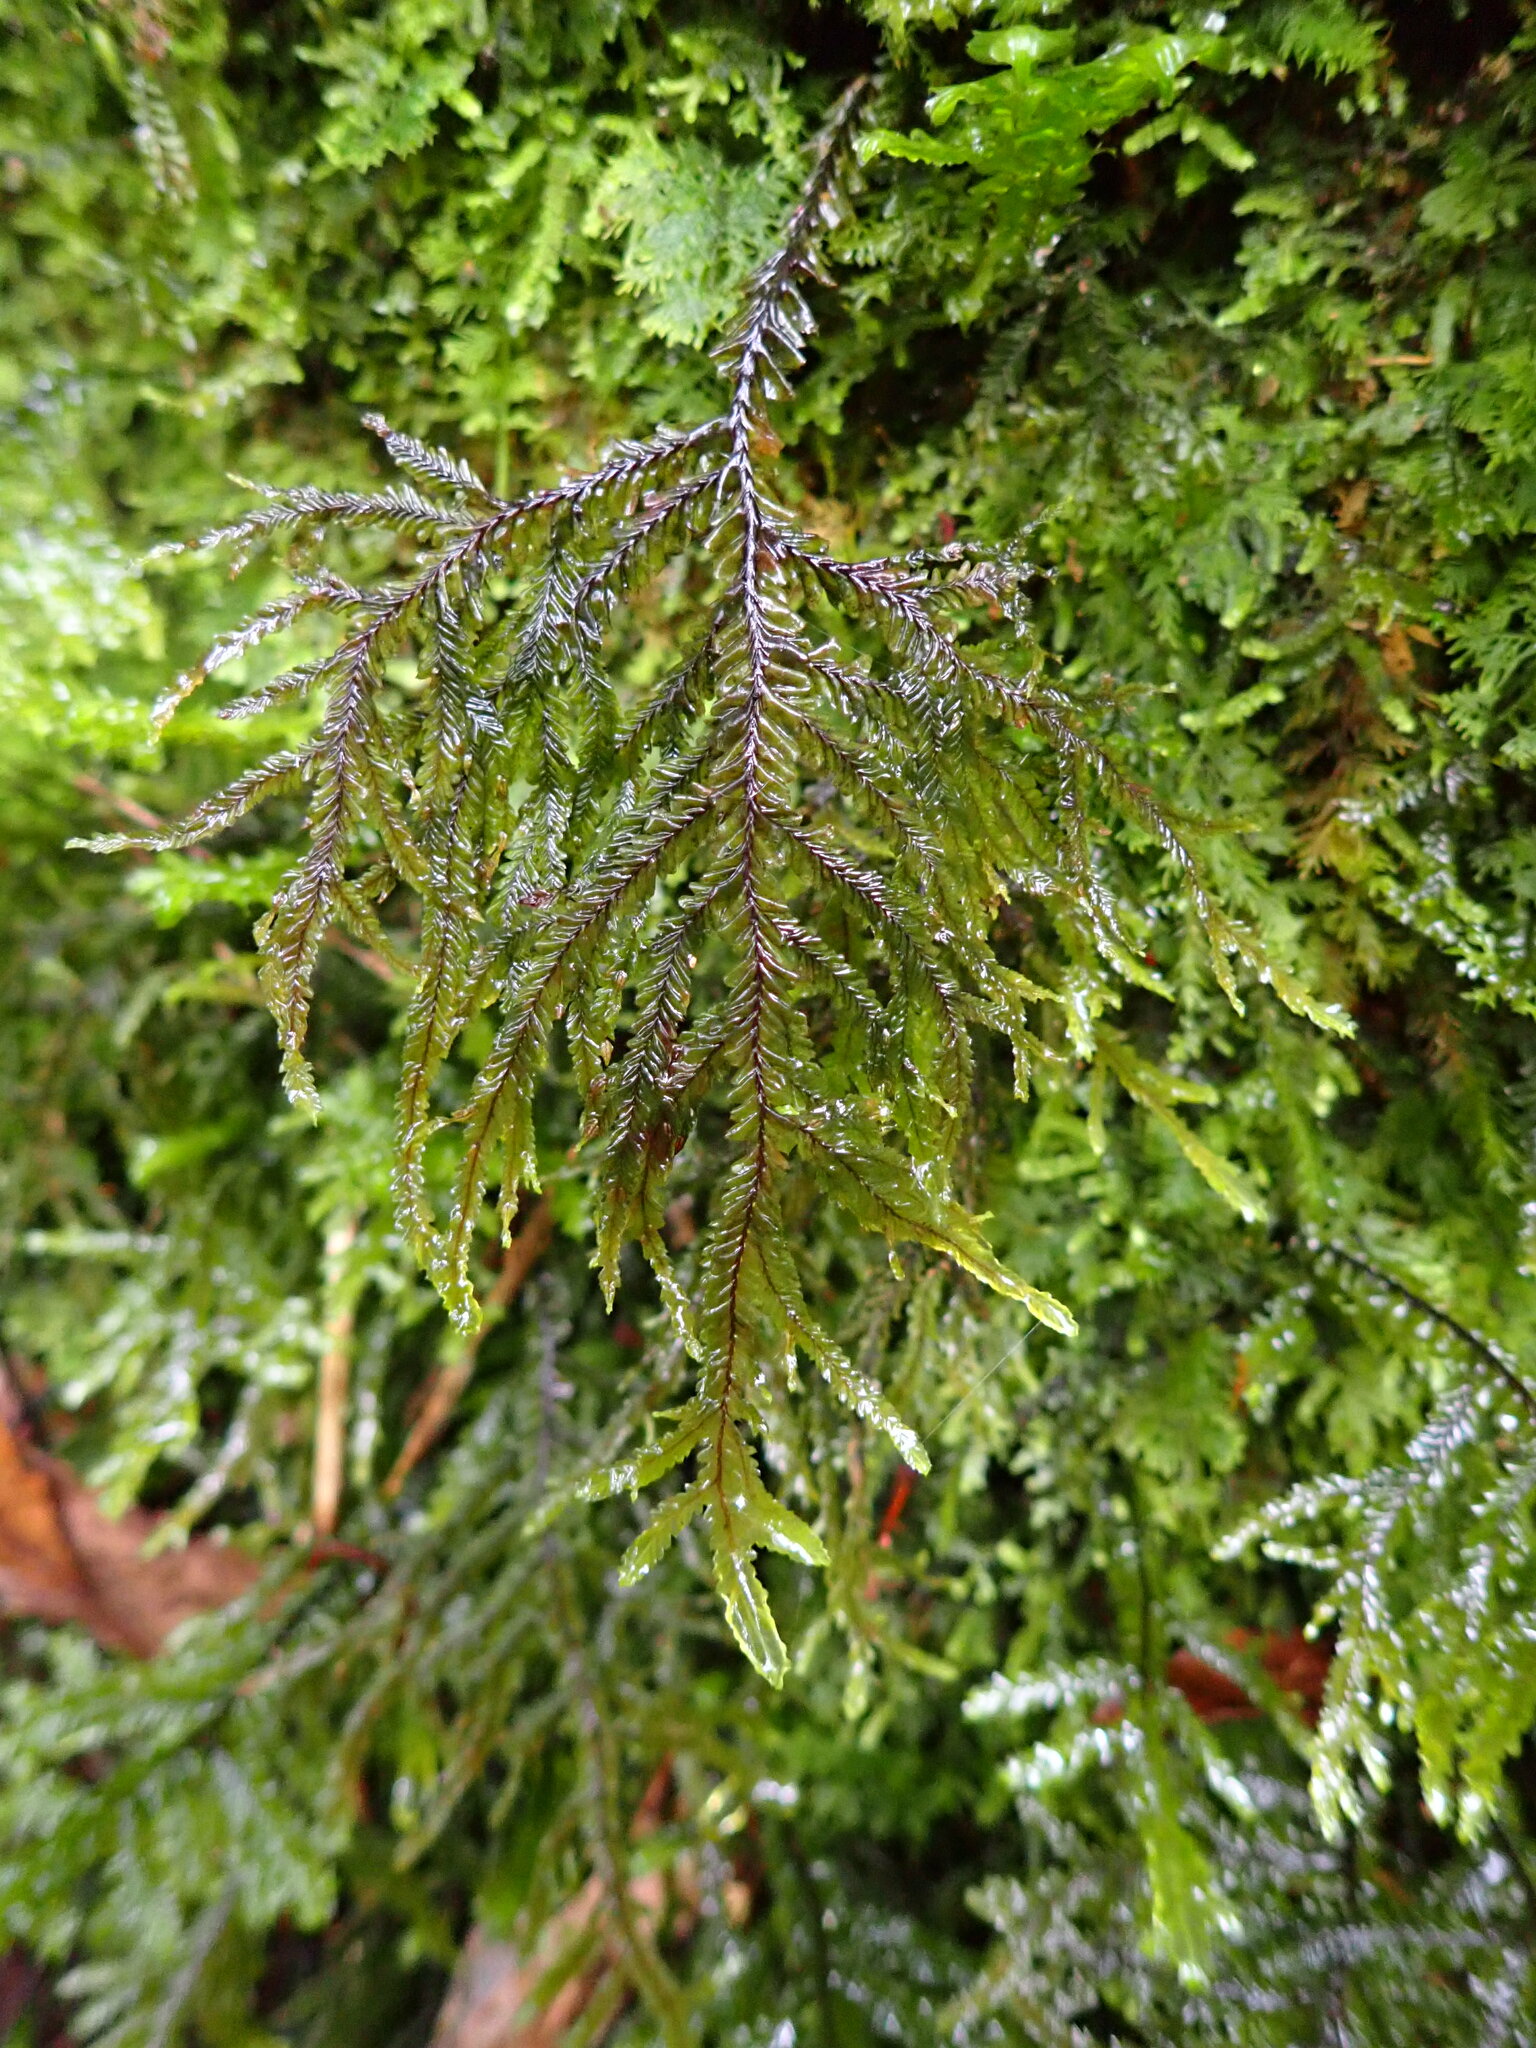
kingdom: Plantae
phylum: Marchantiophyta
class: Jungermanniopsida
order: Jungermanniales
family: Plagiochilaceae
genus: Plagiochila
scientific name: Plagiochila stephensoniana
